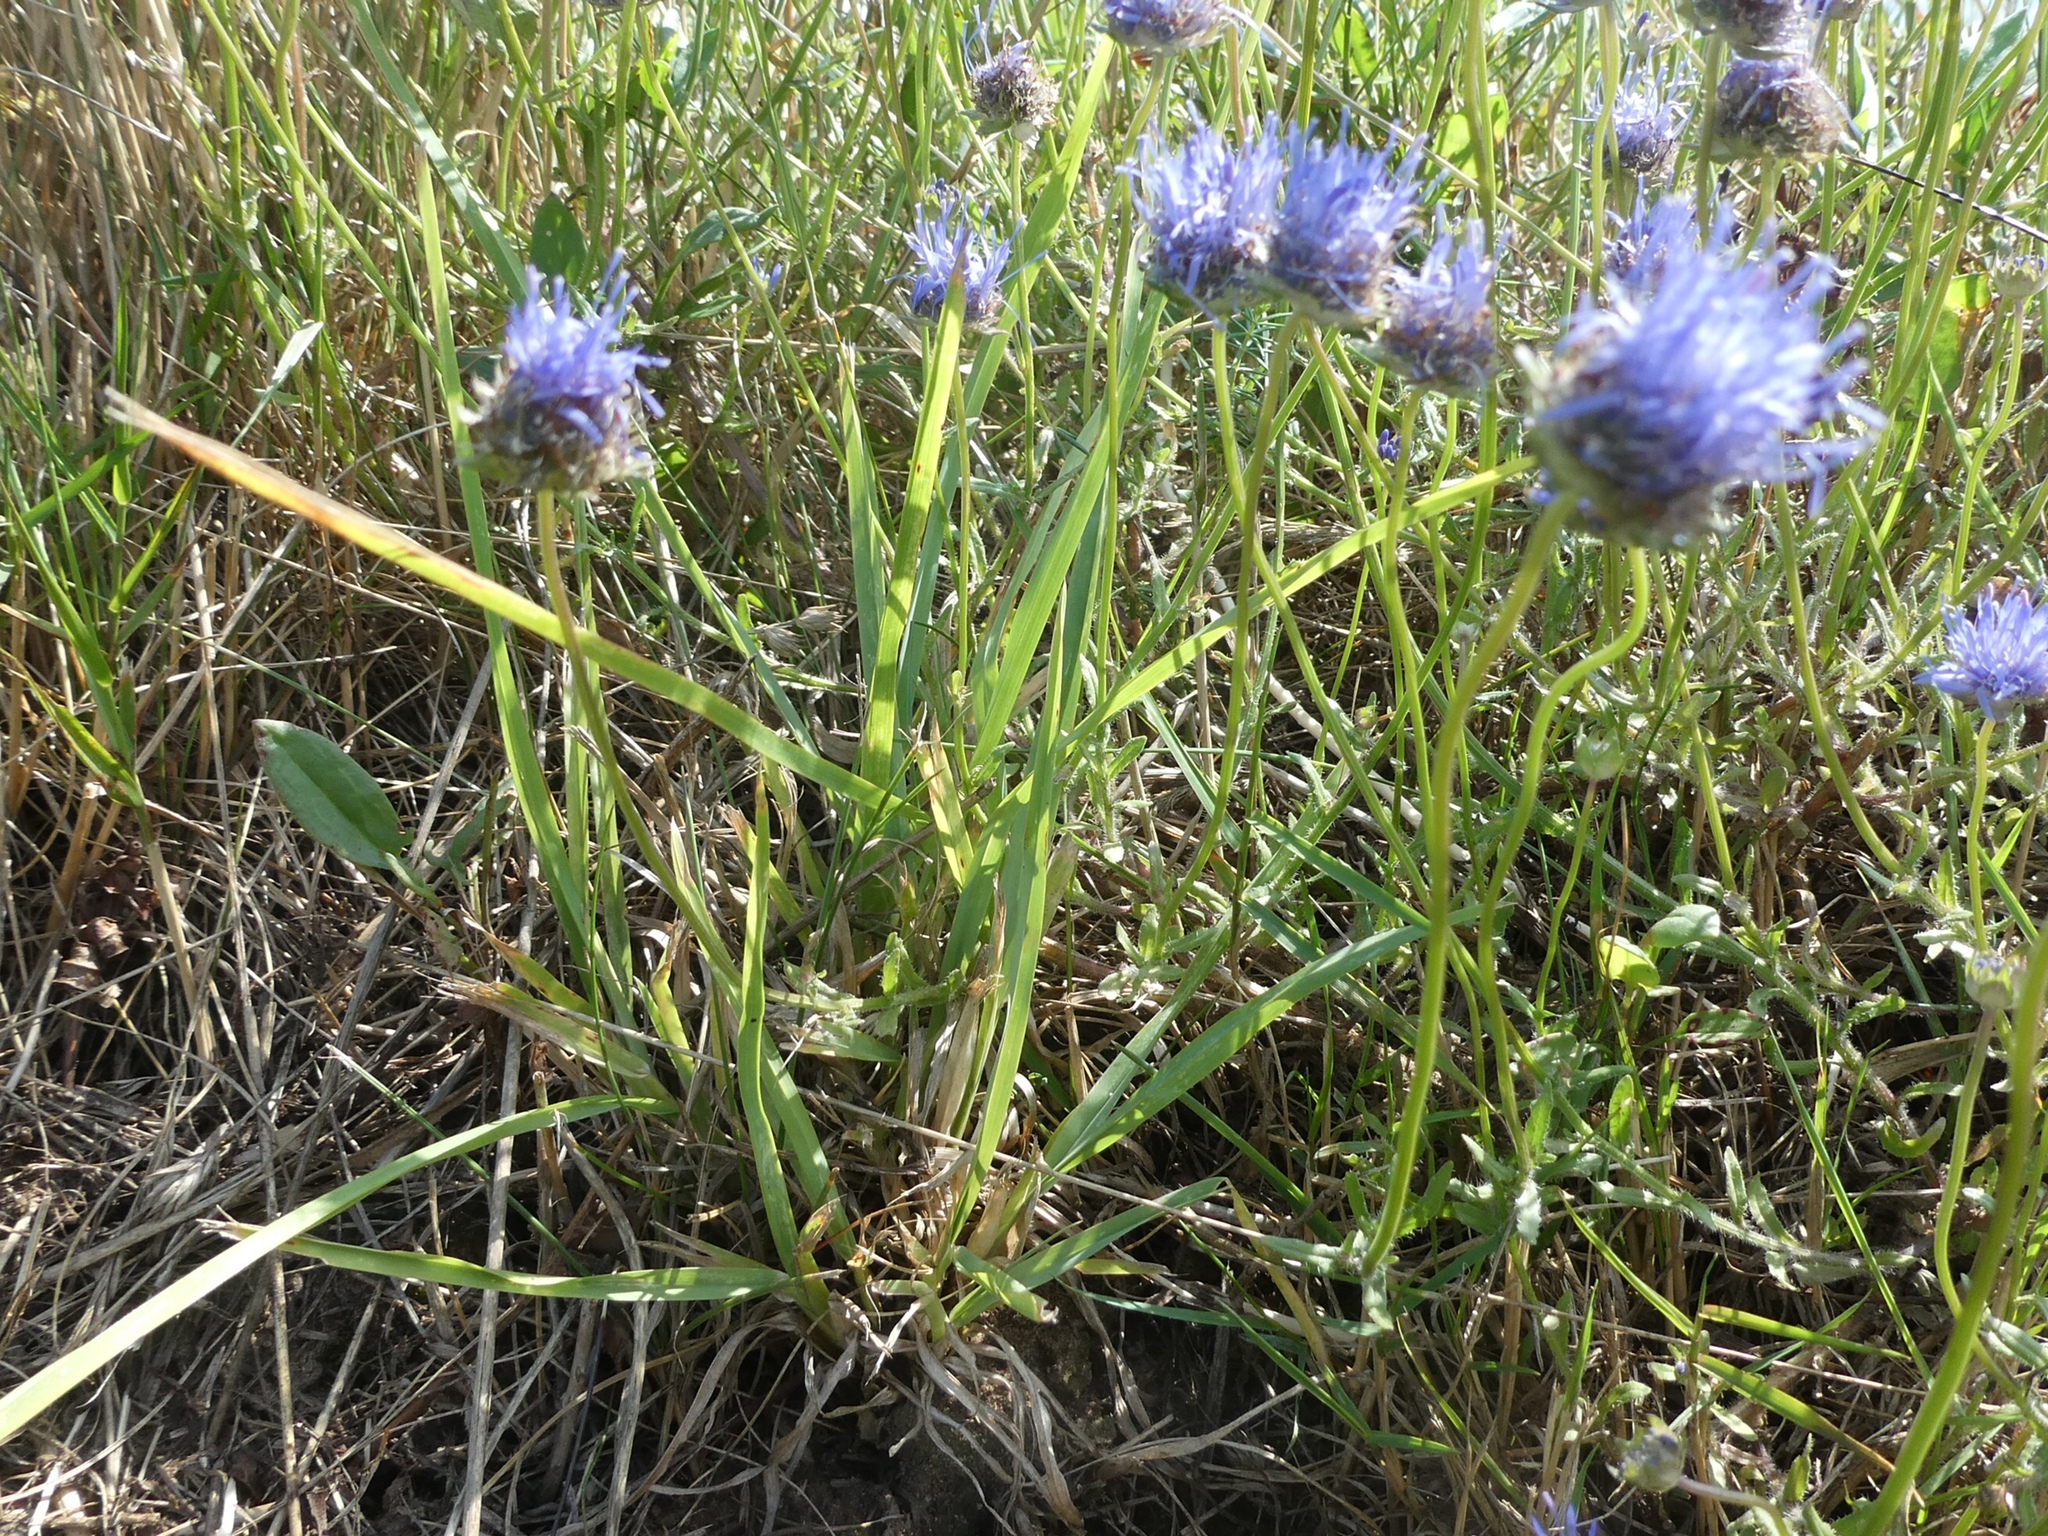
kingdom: Plantae
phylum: Tracheophyta
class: Magnoliopsida
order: Asterales
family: Campanulaceae
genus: Jasione
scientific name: Jasione montana
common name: Sheep's-bit
